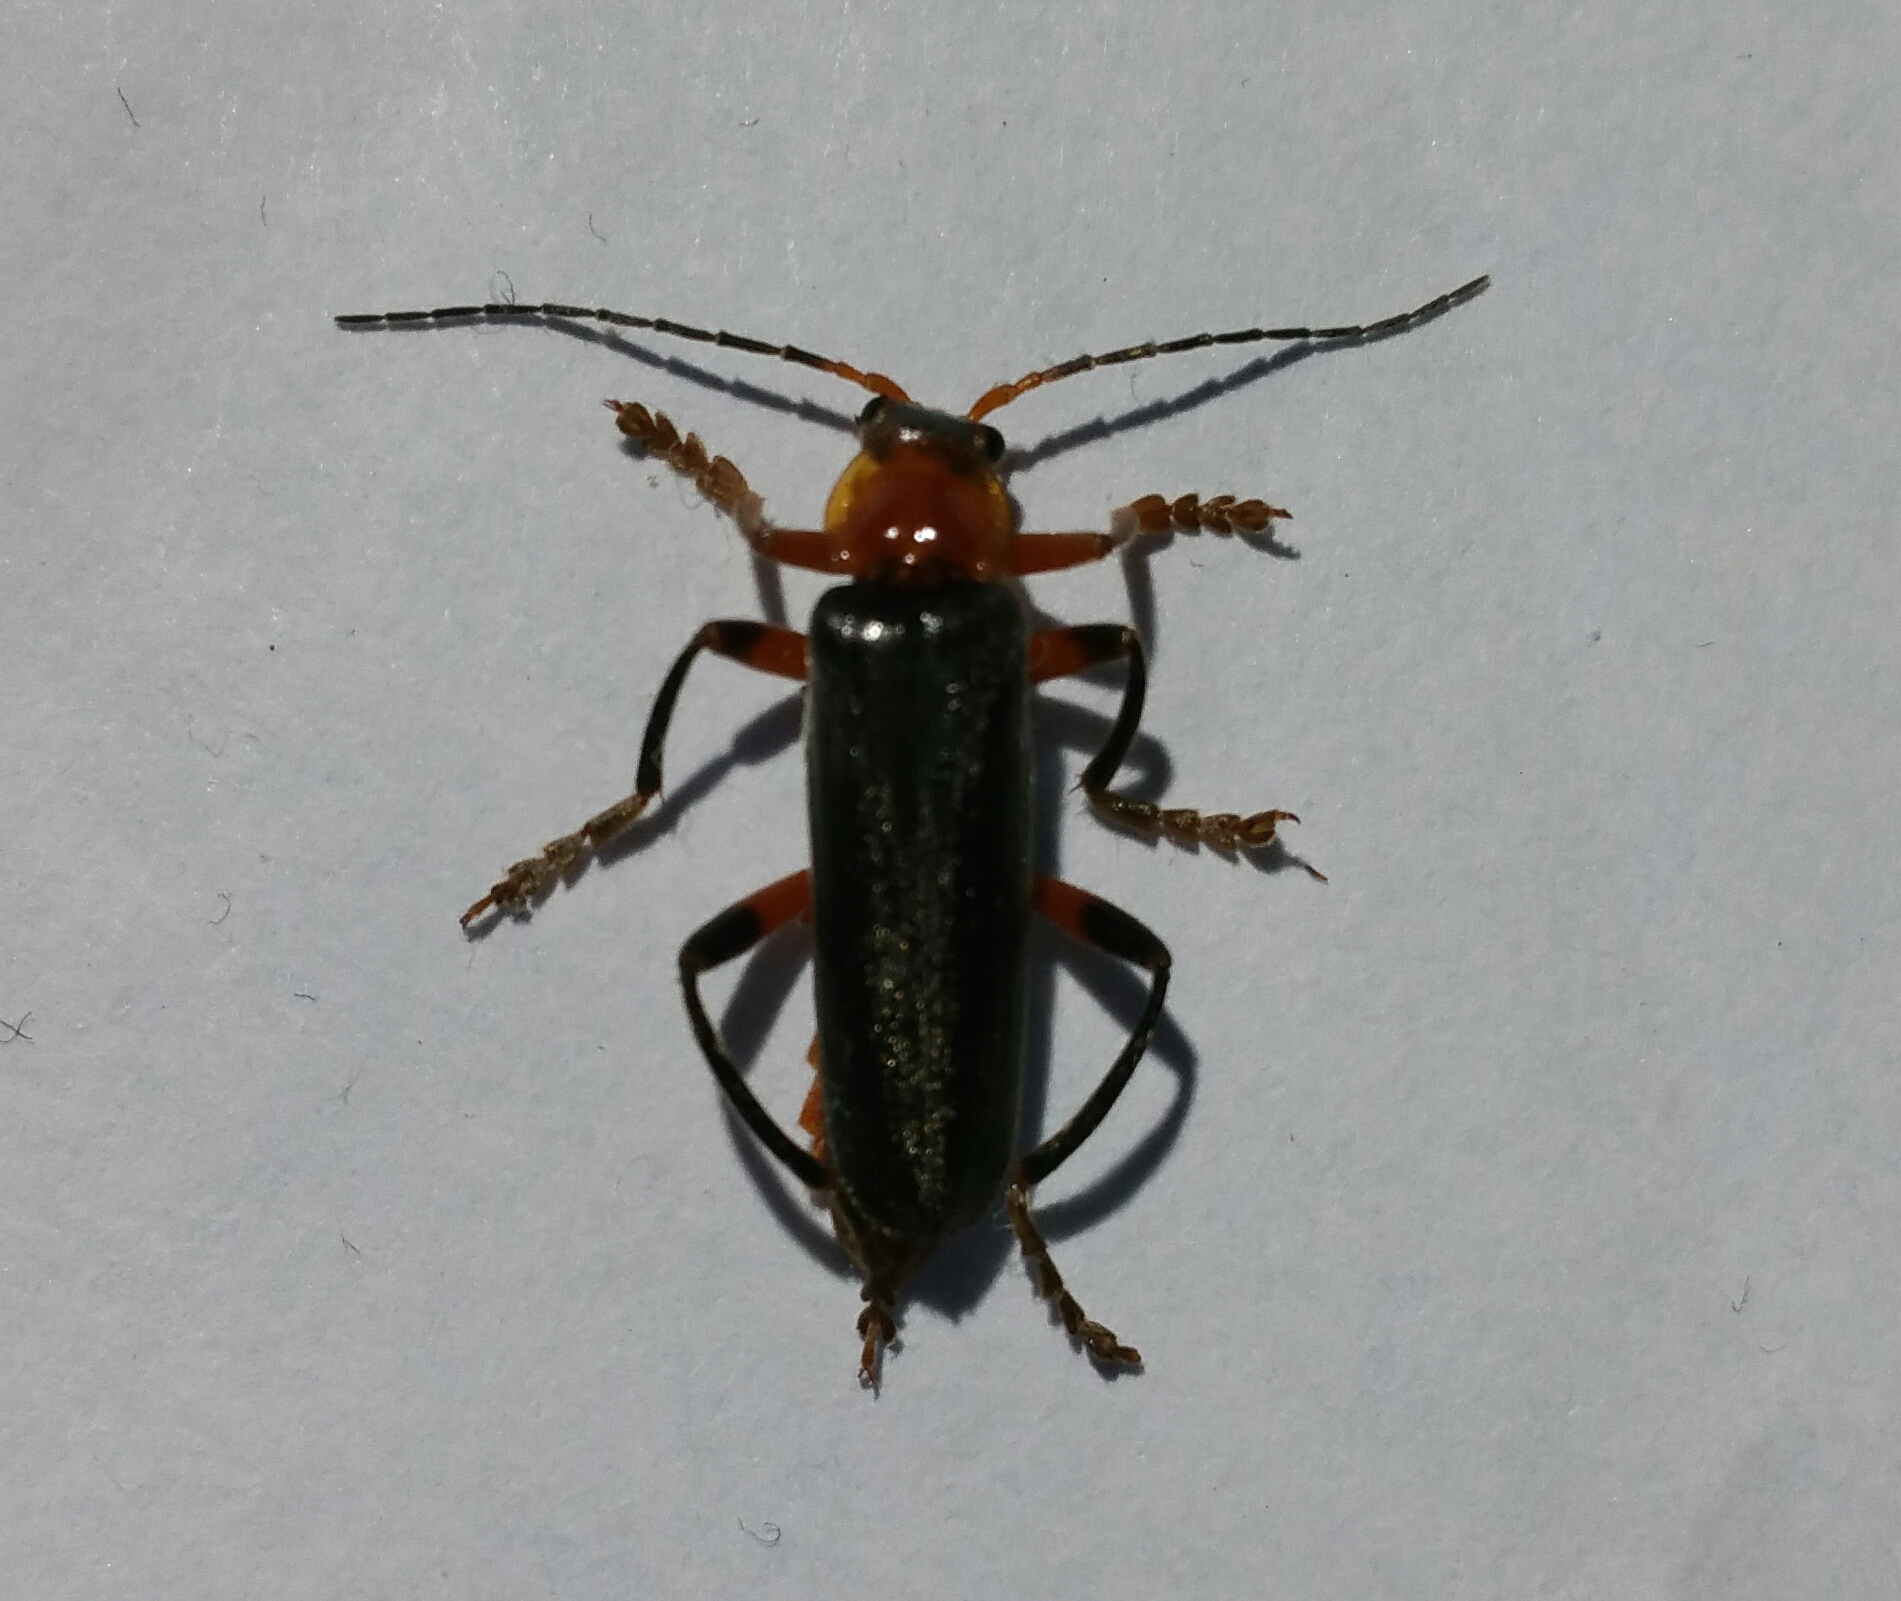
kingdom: Animalia
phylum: Arthropoda
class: Insecta
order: Coleoptera
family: Cantharidae
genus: Cantharis
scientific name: Cantharis livida
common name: Livid soldier beetle
